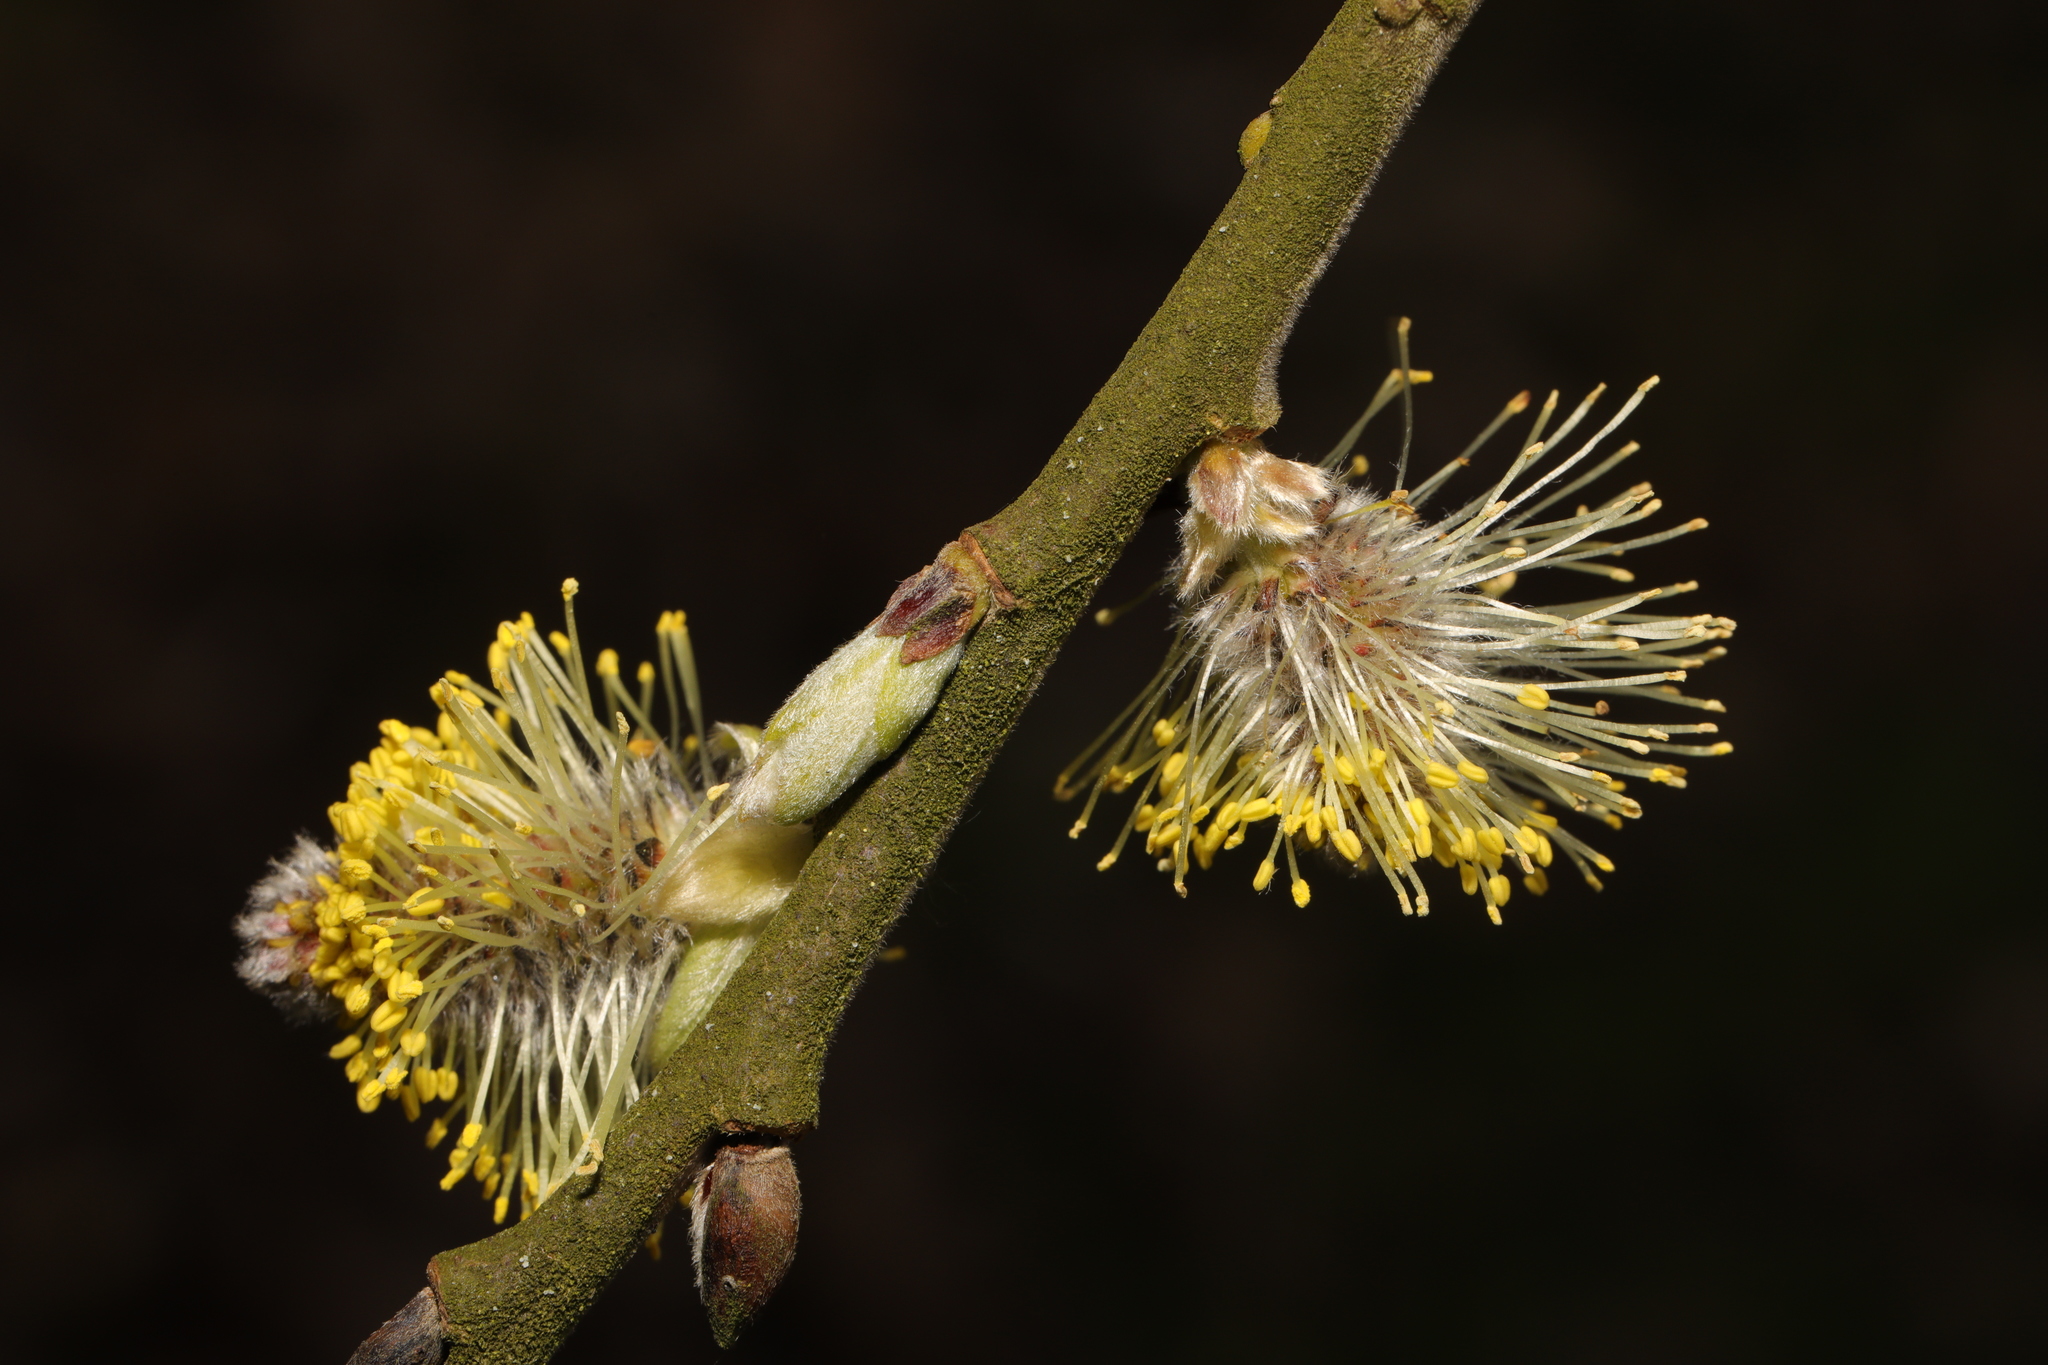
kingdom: Plantae
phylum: Tracheophyta
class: Magnoliopsida
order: Malpighiales
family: Salicaceae
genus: Salix
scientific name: Salix caprea
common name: Goat willow
